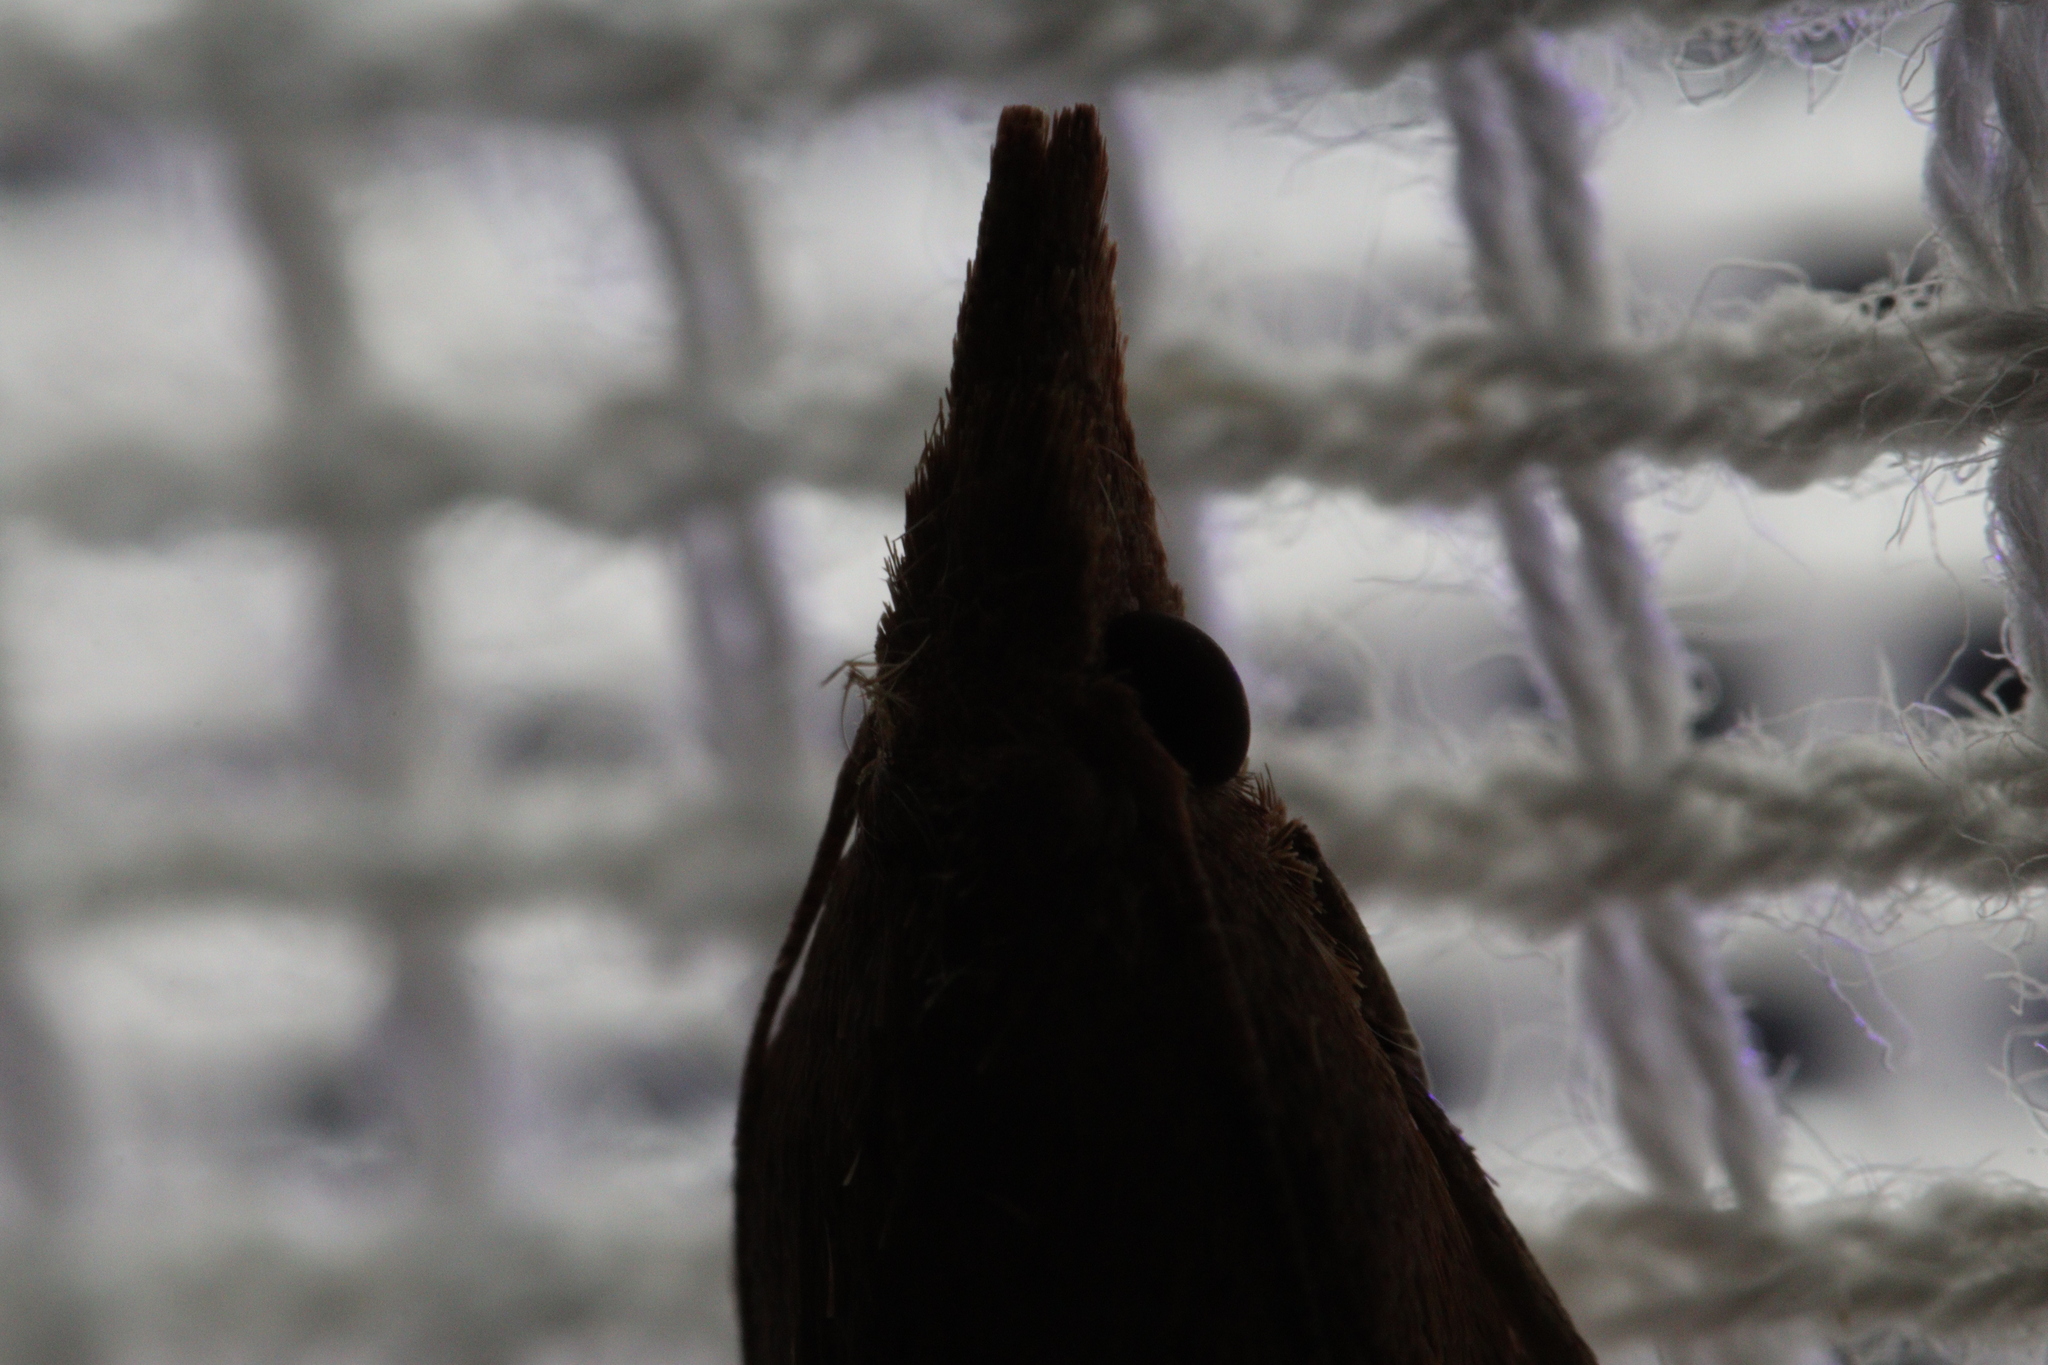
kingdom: Animalia
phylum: Arthropoda
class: Insecta
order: Lepidoptera
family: Pyralidae
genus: Meyriccia
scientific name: Meyriccia latro
